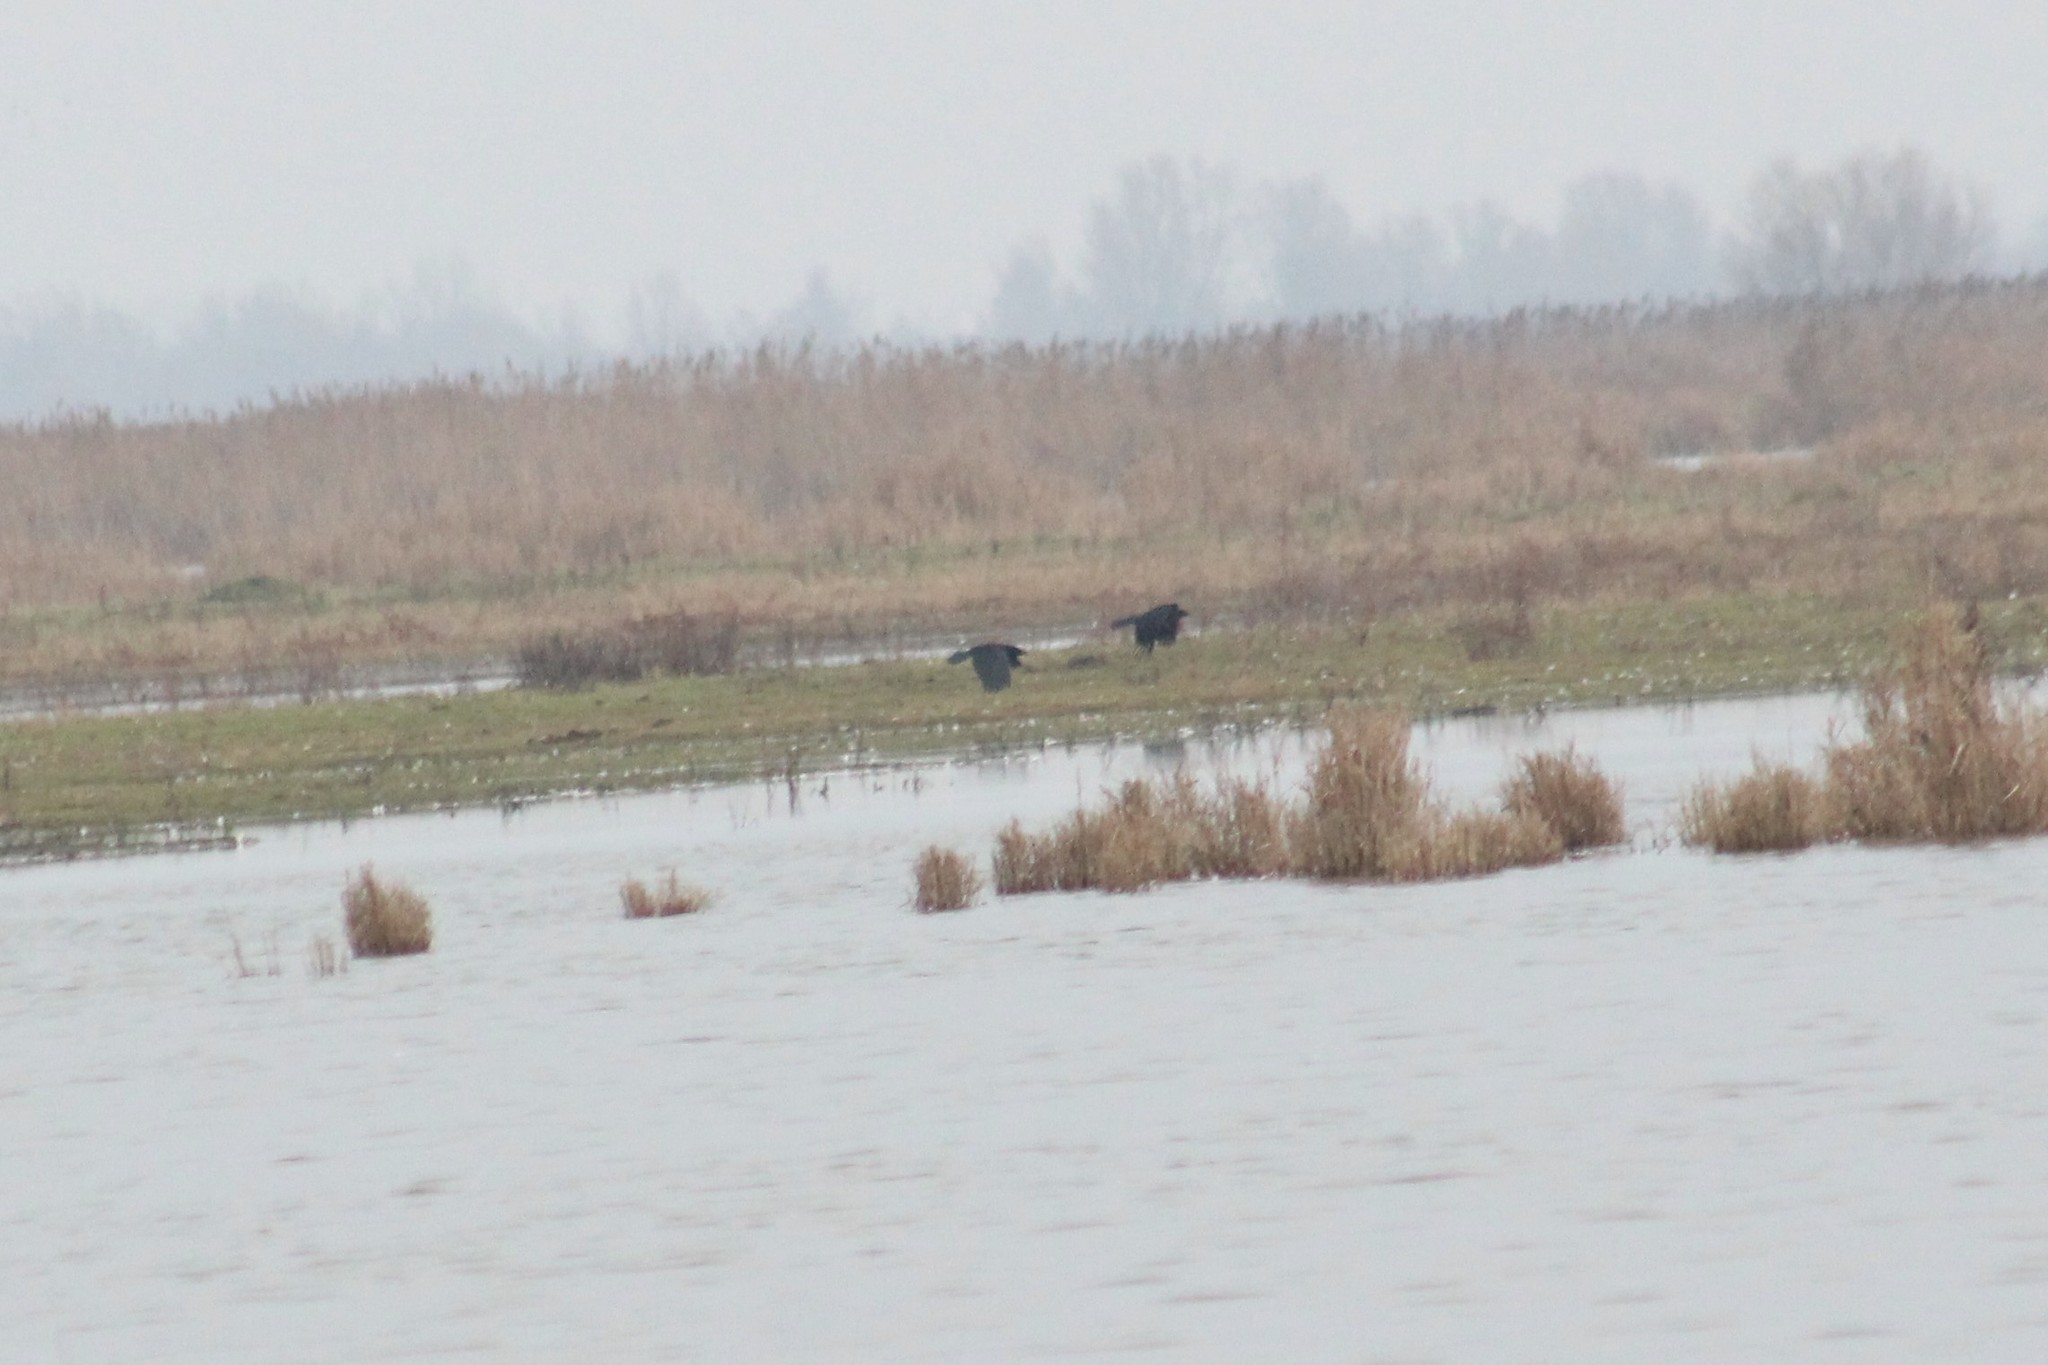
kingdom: Animalia
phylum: Chordata
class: Aves
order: Passeriformes
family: Corvidae
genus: Corvus
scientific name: Corvus corone
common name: Carrion crow
